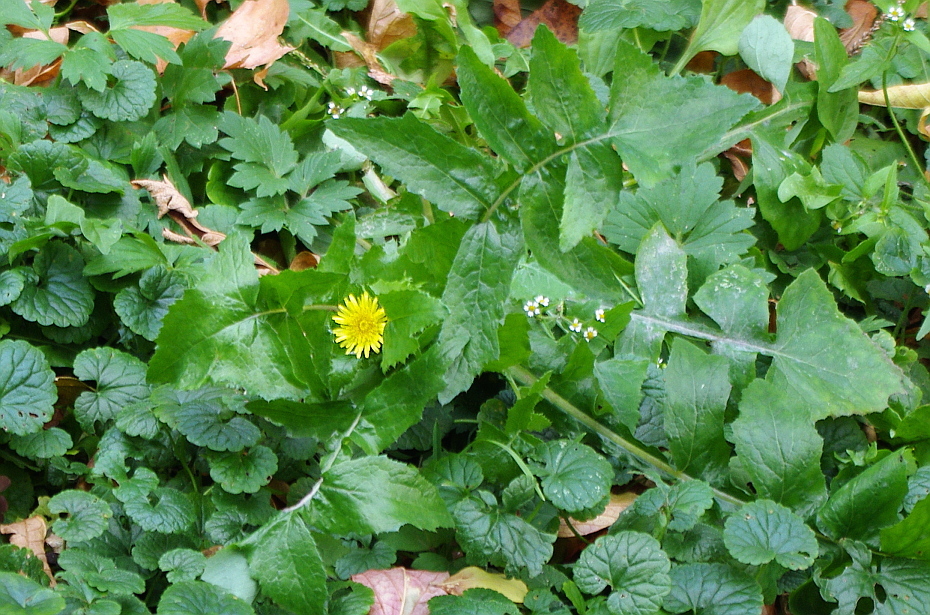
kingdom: Plantae
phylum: Tracheophyta
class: Magnoliopsida
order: Asterales
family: Asteraceae
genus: Sonchus
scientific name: Sonchus oleraceus
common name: Common sowthistle
